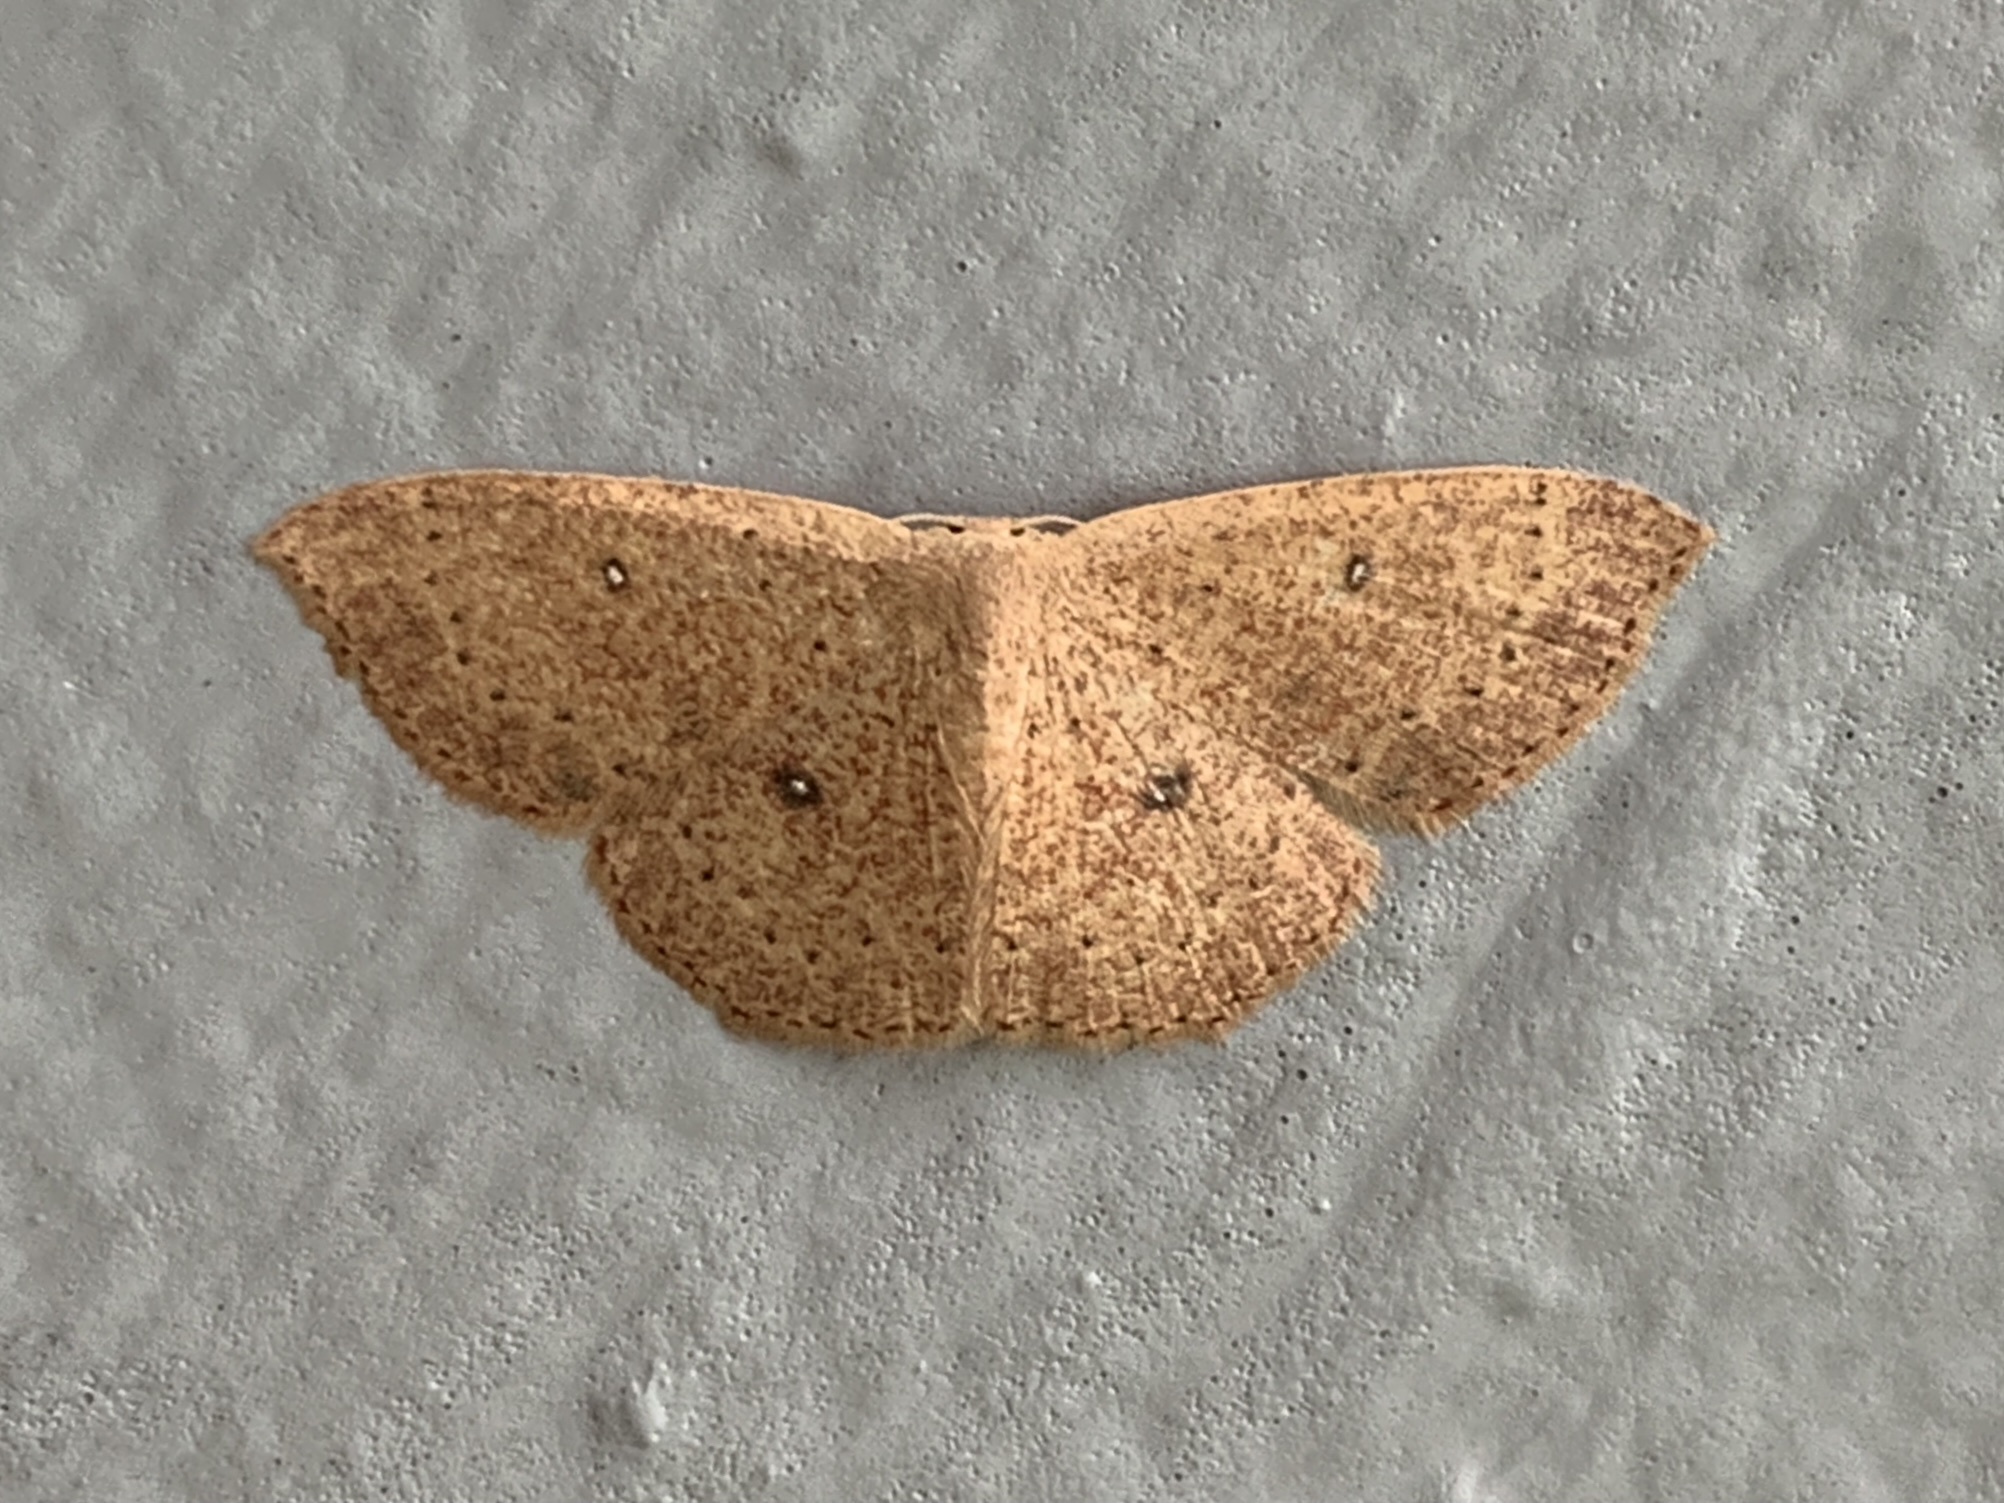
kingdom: Animalia
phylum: Arthropoda
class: Insecta
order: Lepidoptera
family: Geometridae
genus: Cyclophora
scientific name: Cyclophora packardi
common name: Packard's wave
